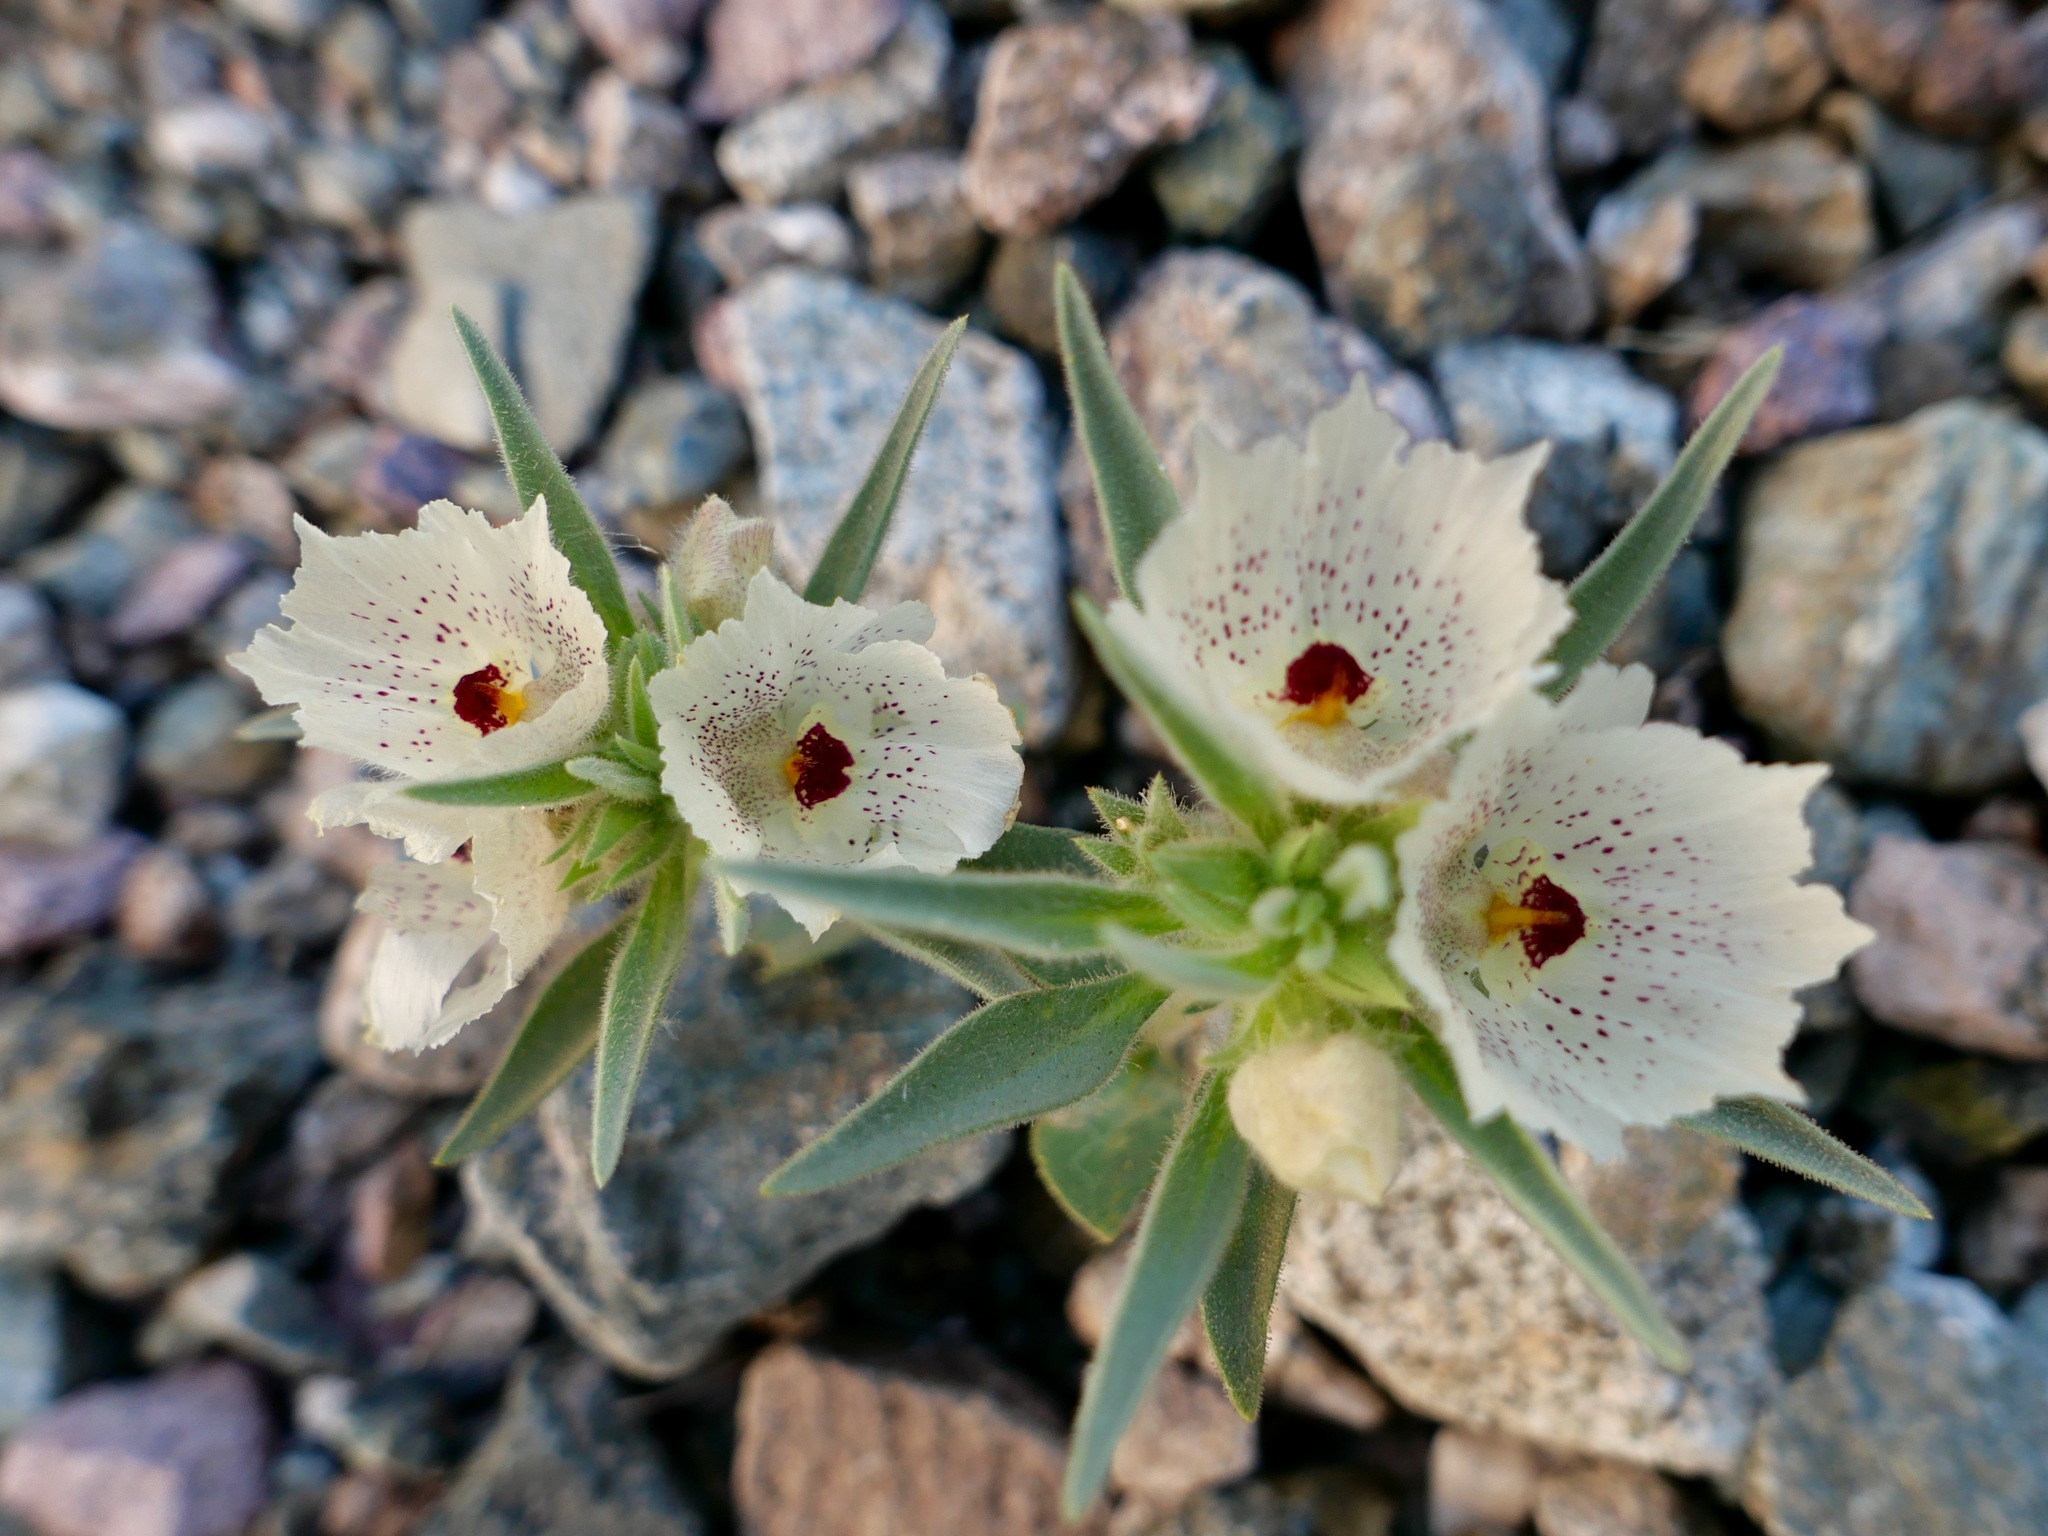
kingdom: Plantae
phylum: Tracheophyta
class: Magnoliopsida
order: Lamiales
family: Plantaginaceae
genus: Mohavea
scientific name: Mohavea confertiflora
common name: Ghost flower
